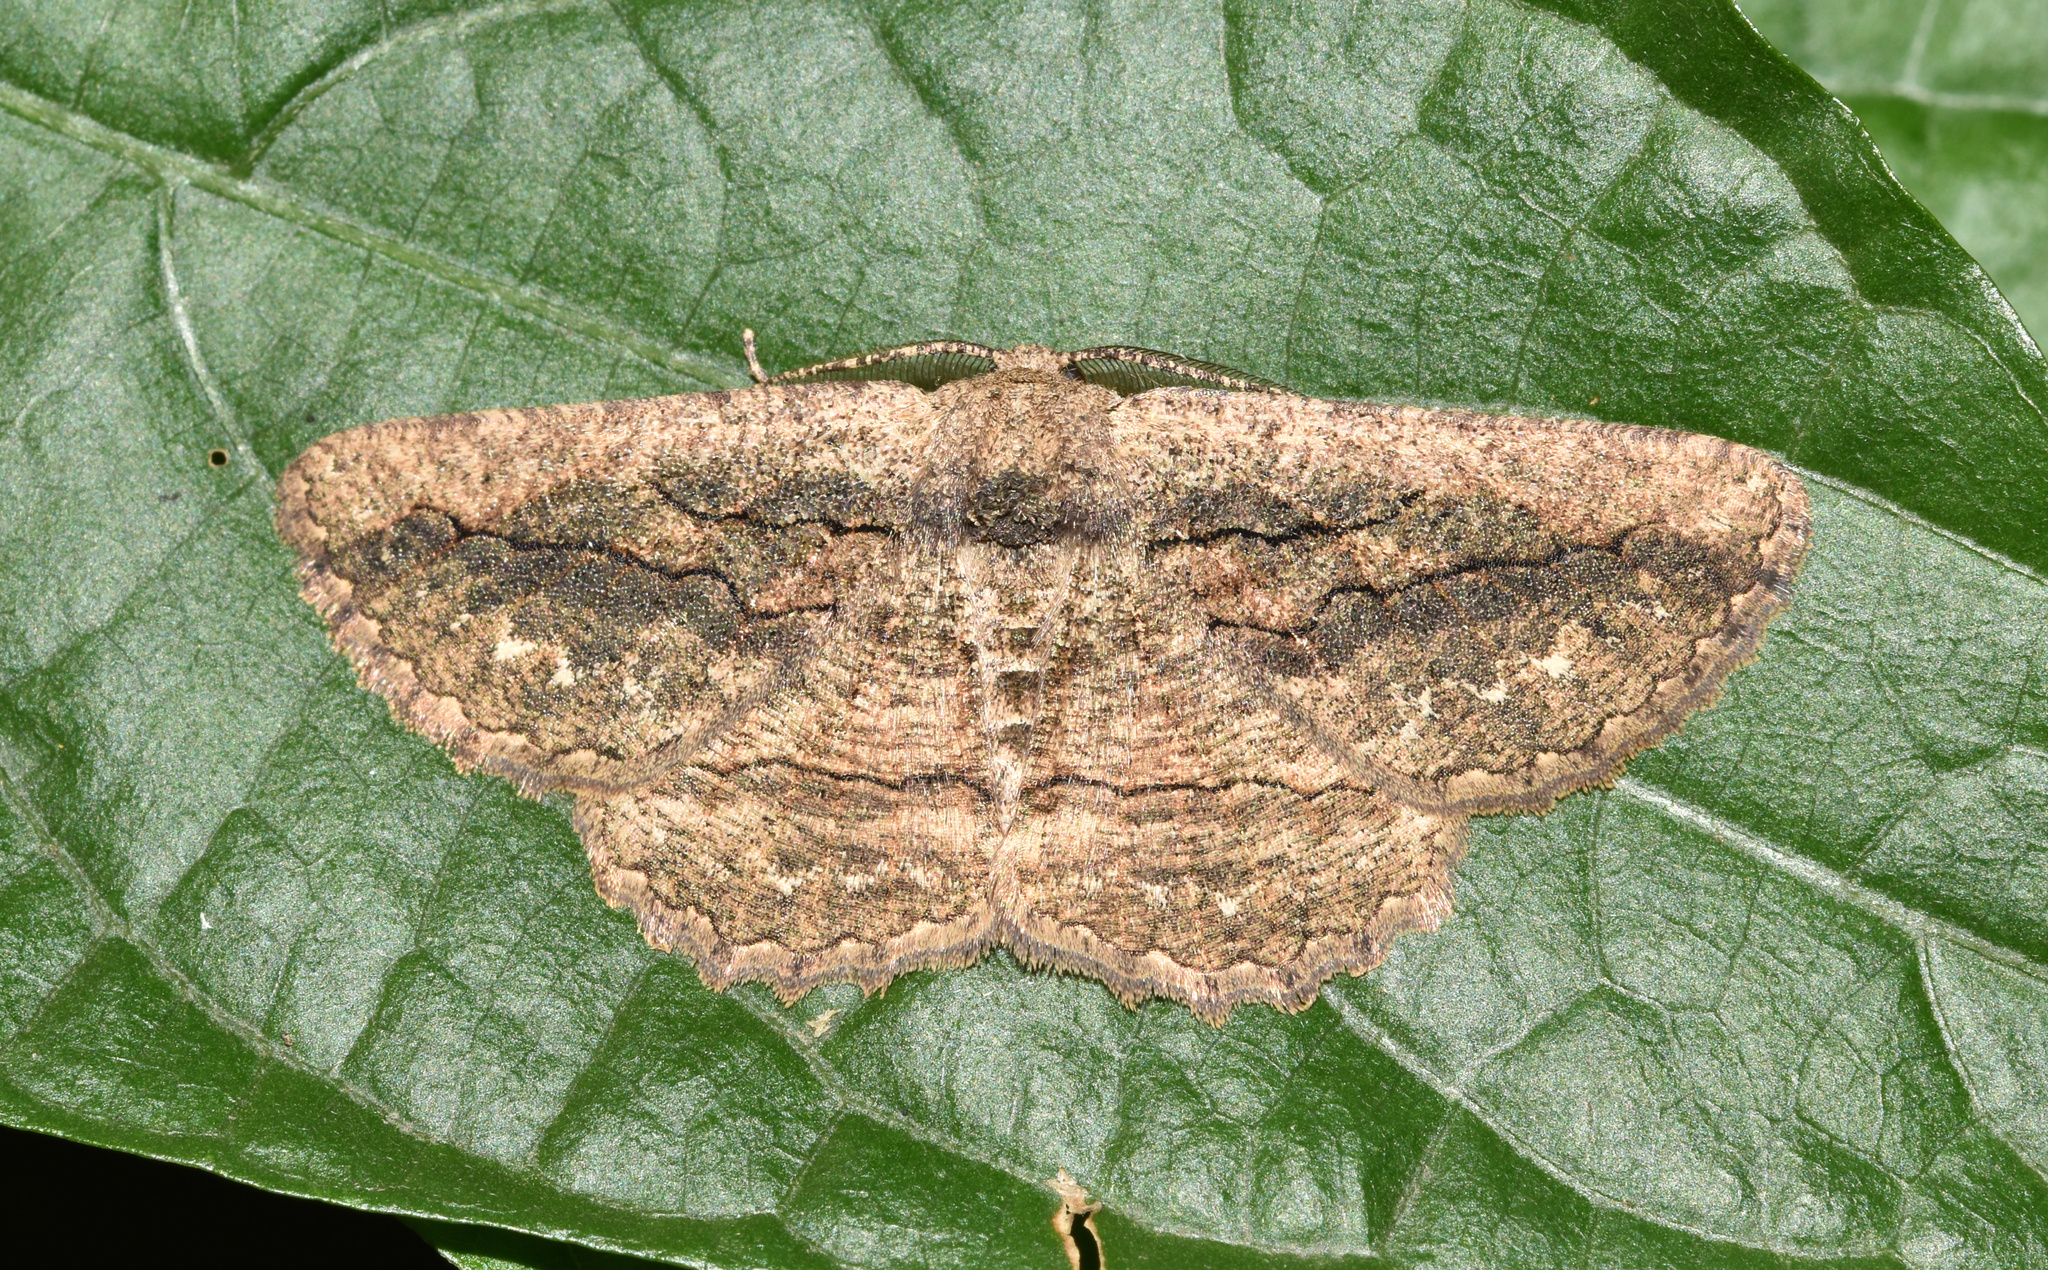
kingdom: Animalia
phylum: Arthropoda
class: Insecta
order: Lepidoptera
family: Geometridae
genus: Aphilopota
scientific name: Aphilopota mailaria
